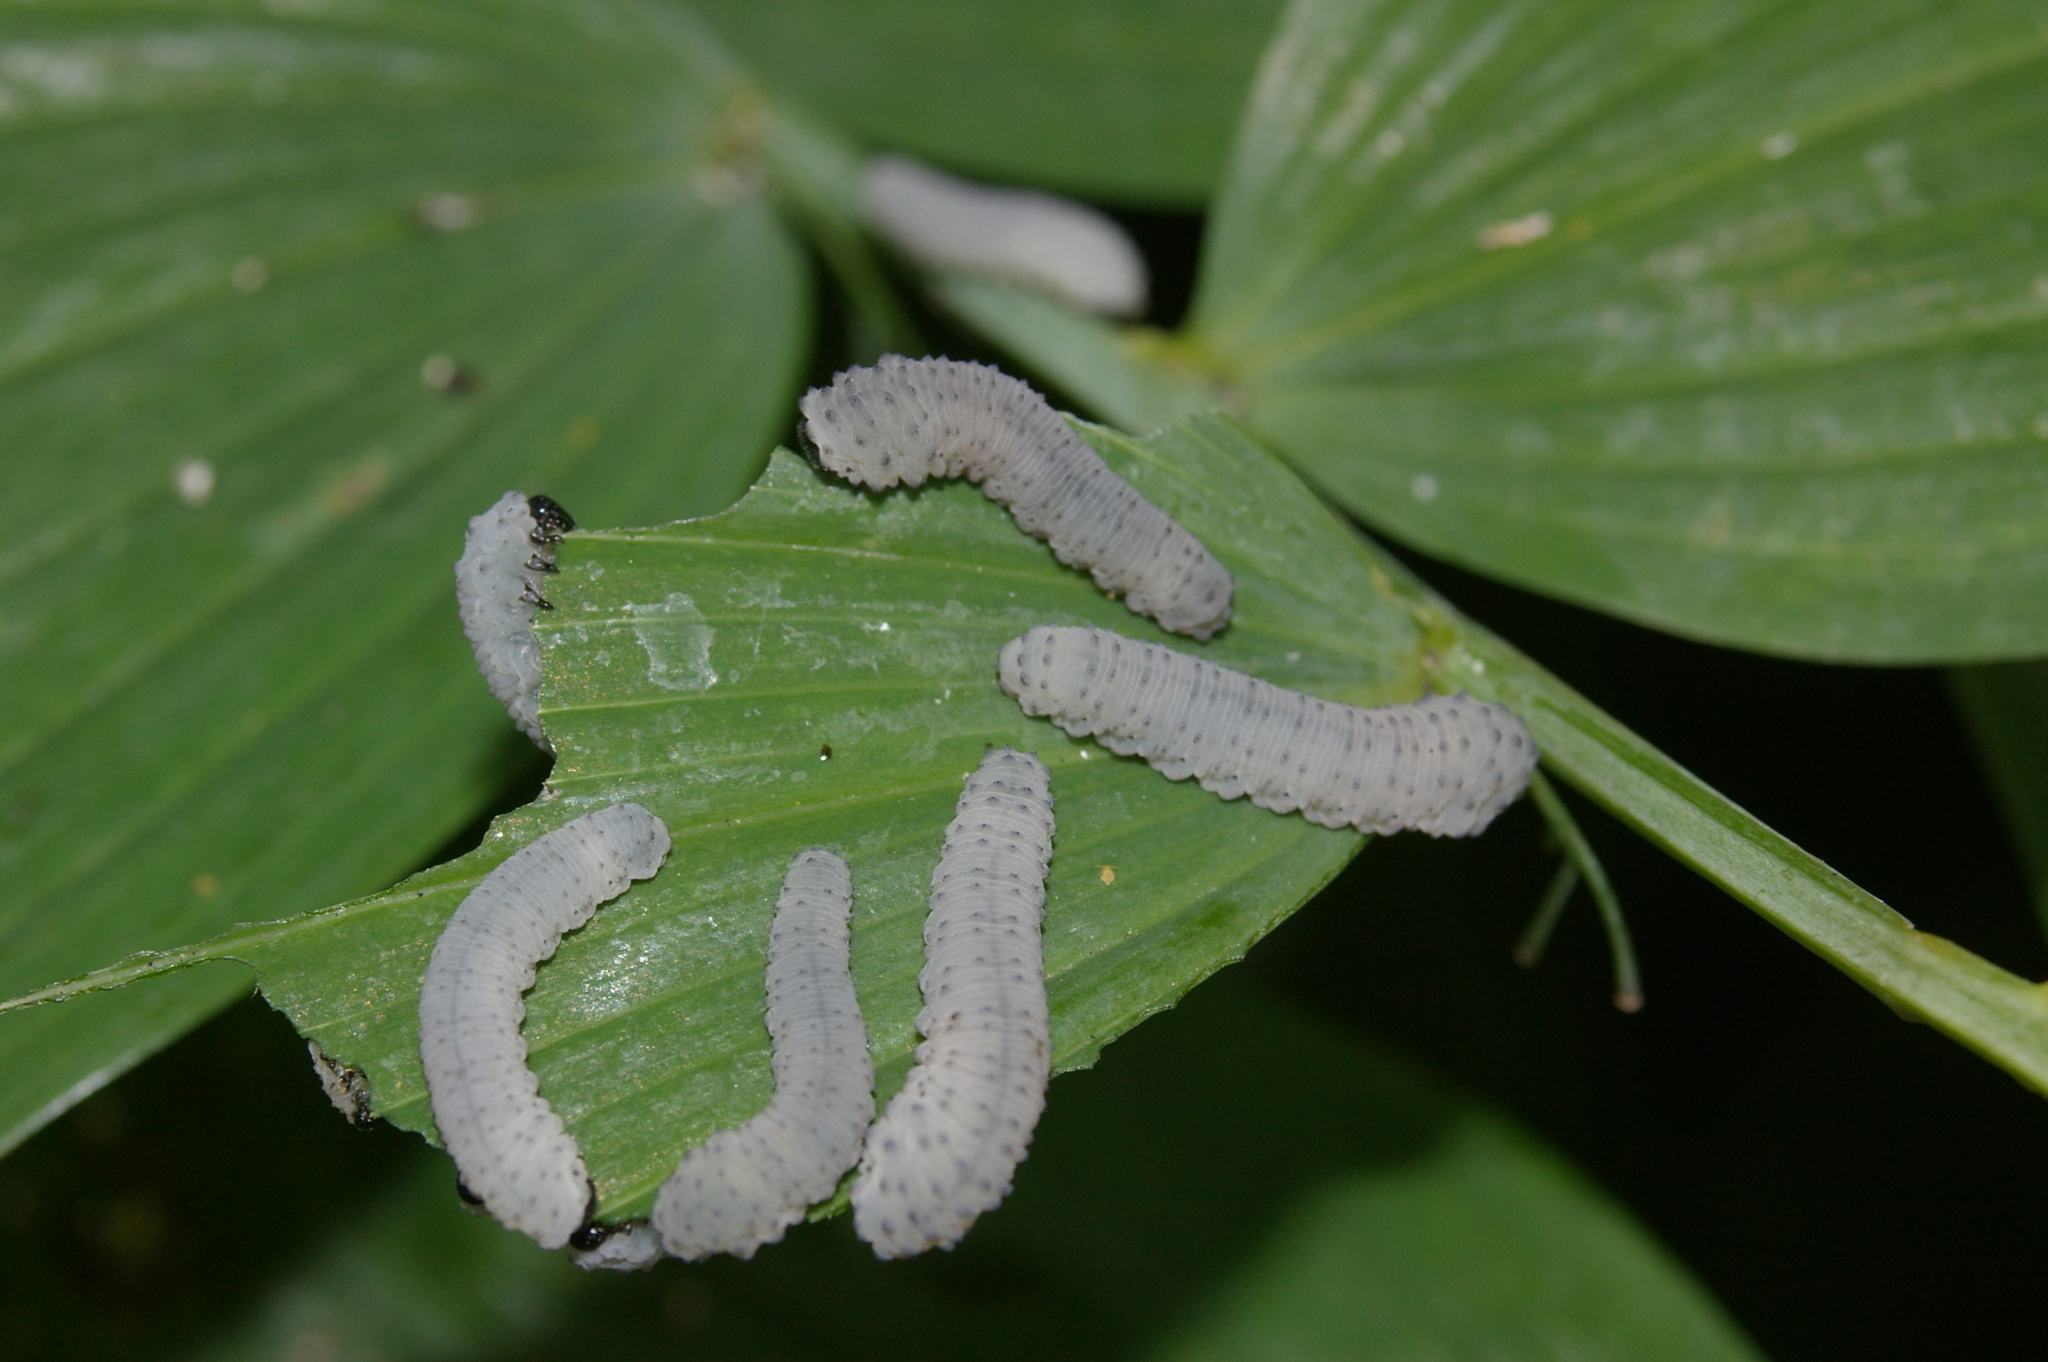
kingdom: Animalia
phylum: Arthropoda
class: Insecta
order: Hymenoptera
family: Tenthredinidae
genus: Phymatocera
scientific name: Phymatocera aterrima
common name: Solomon's-seal sawfly
